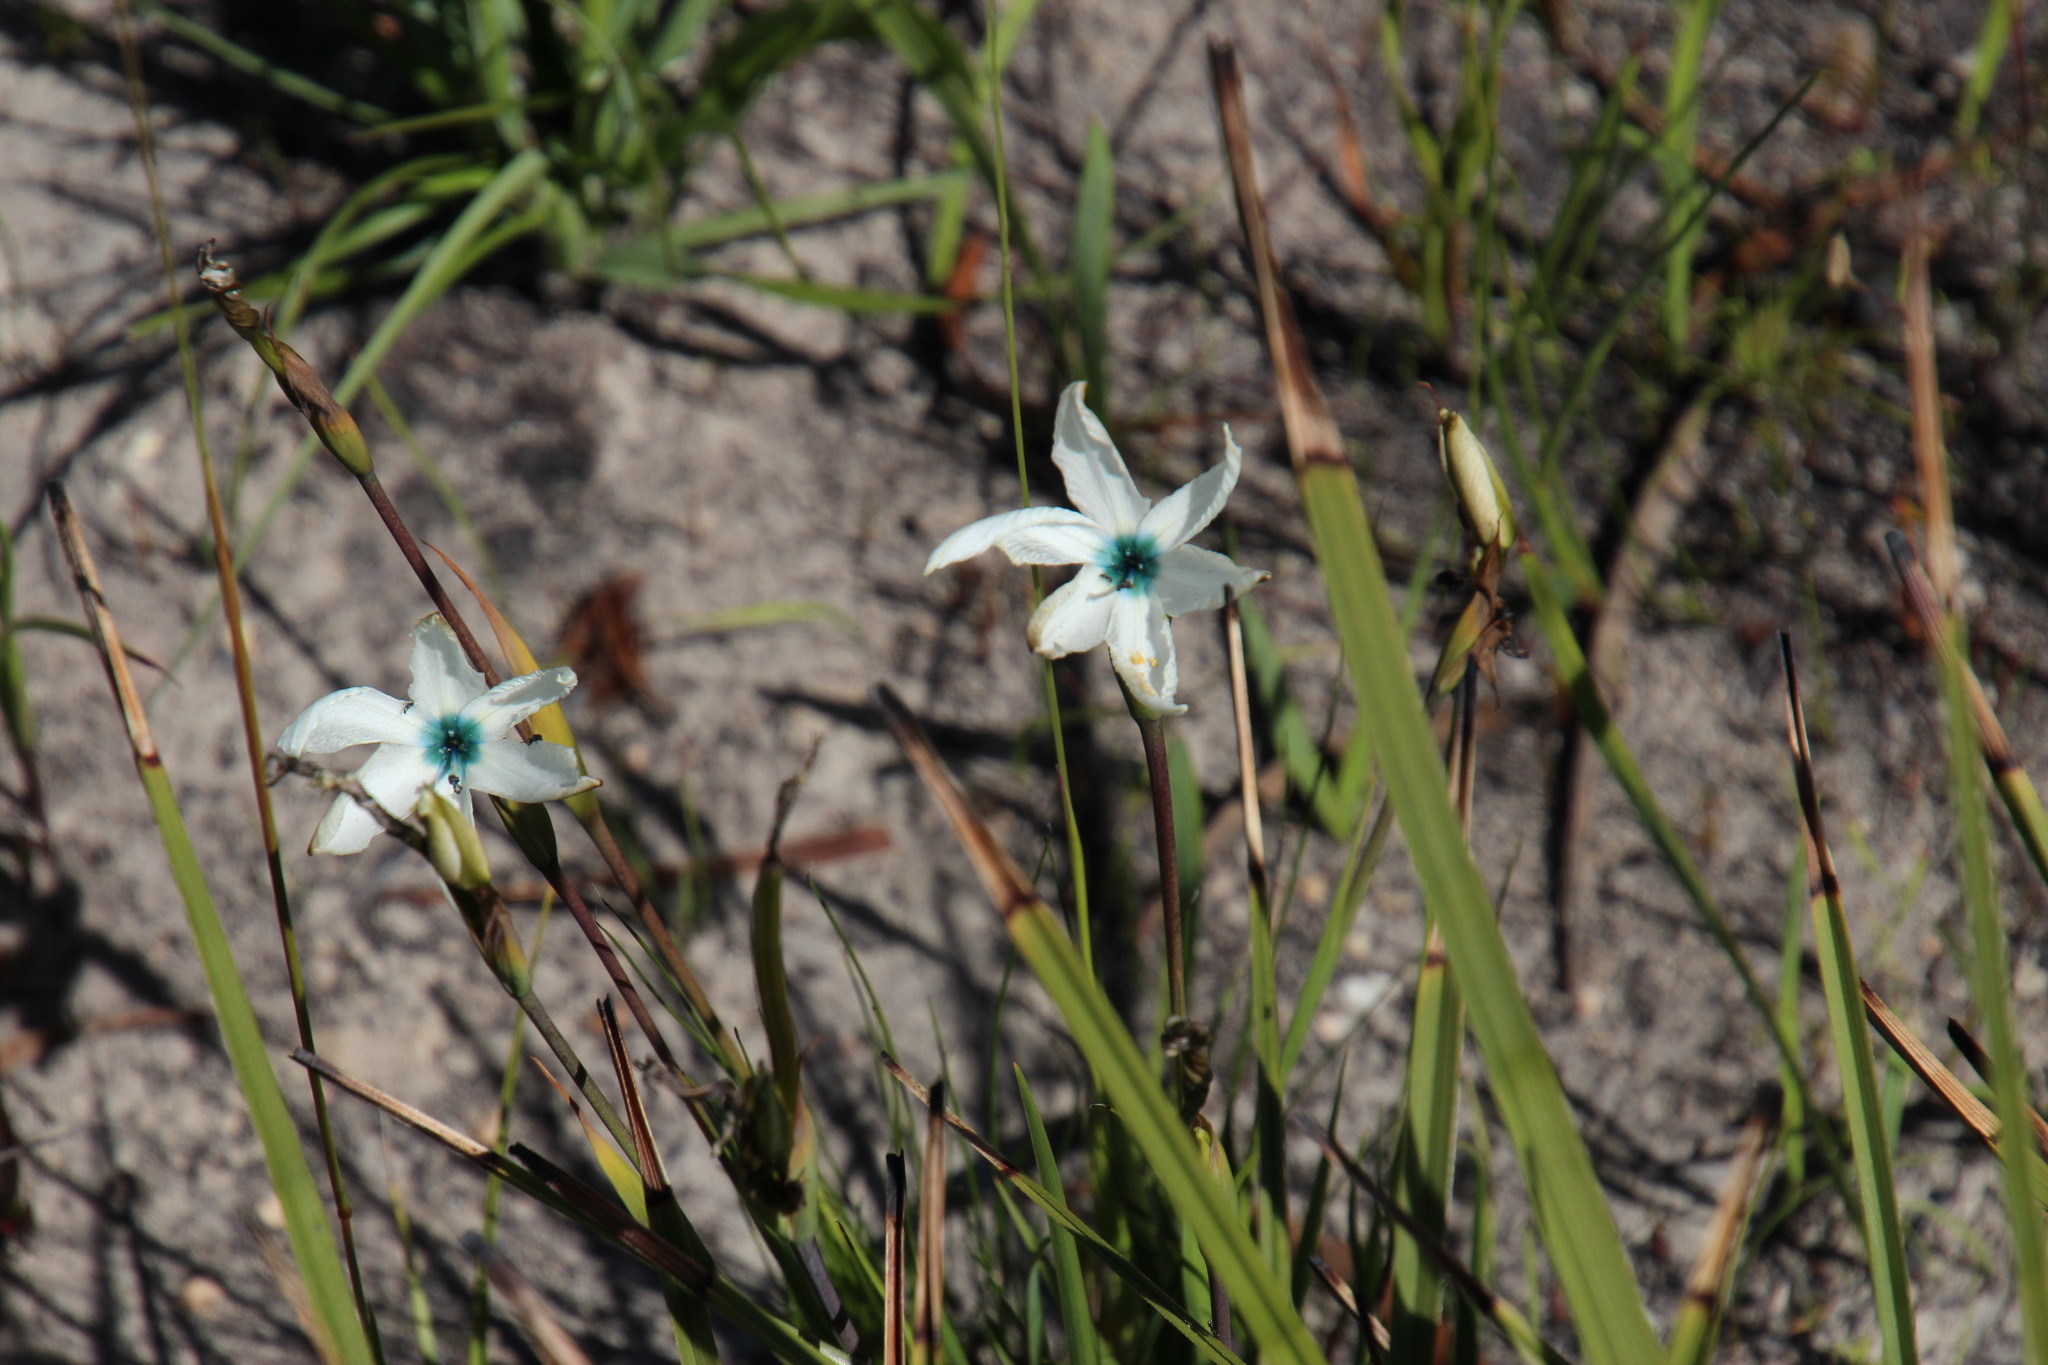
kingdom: Plantae
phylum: Tracheophyta
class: Liliopsida
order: Asparagales
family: Iridaceae
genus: Aristea
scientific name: Aristea cantharophila
